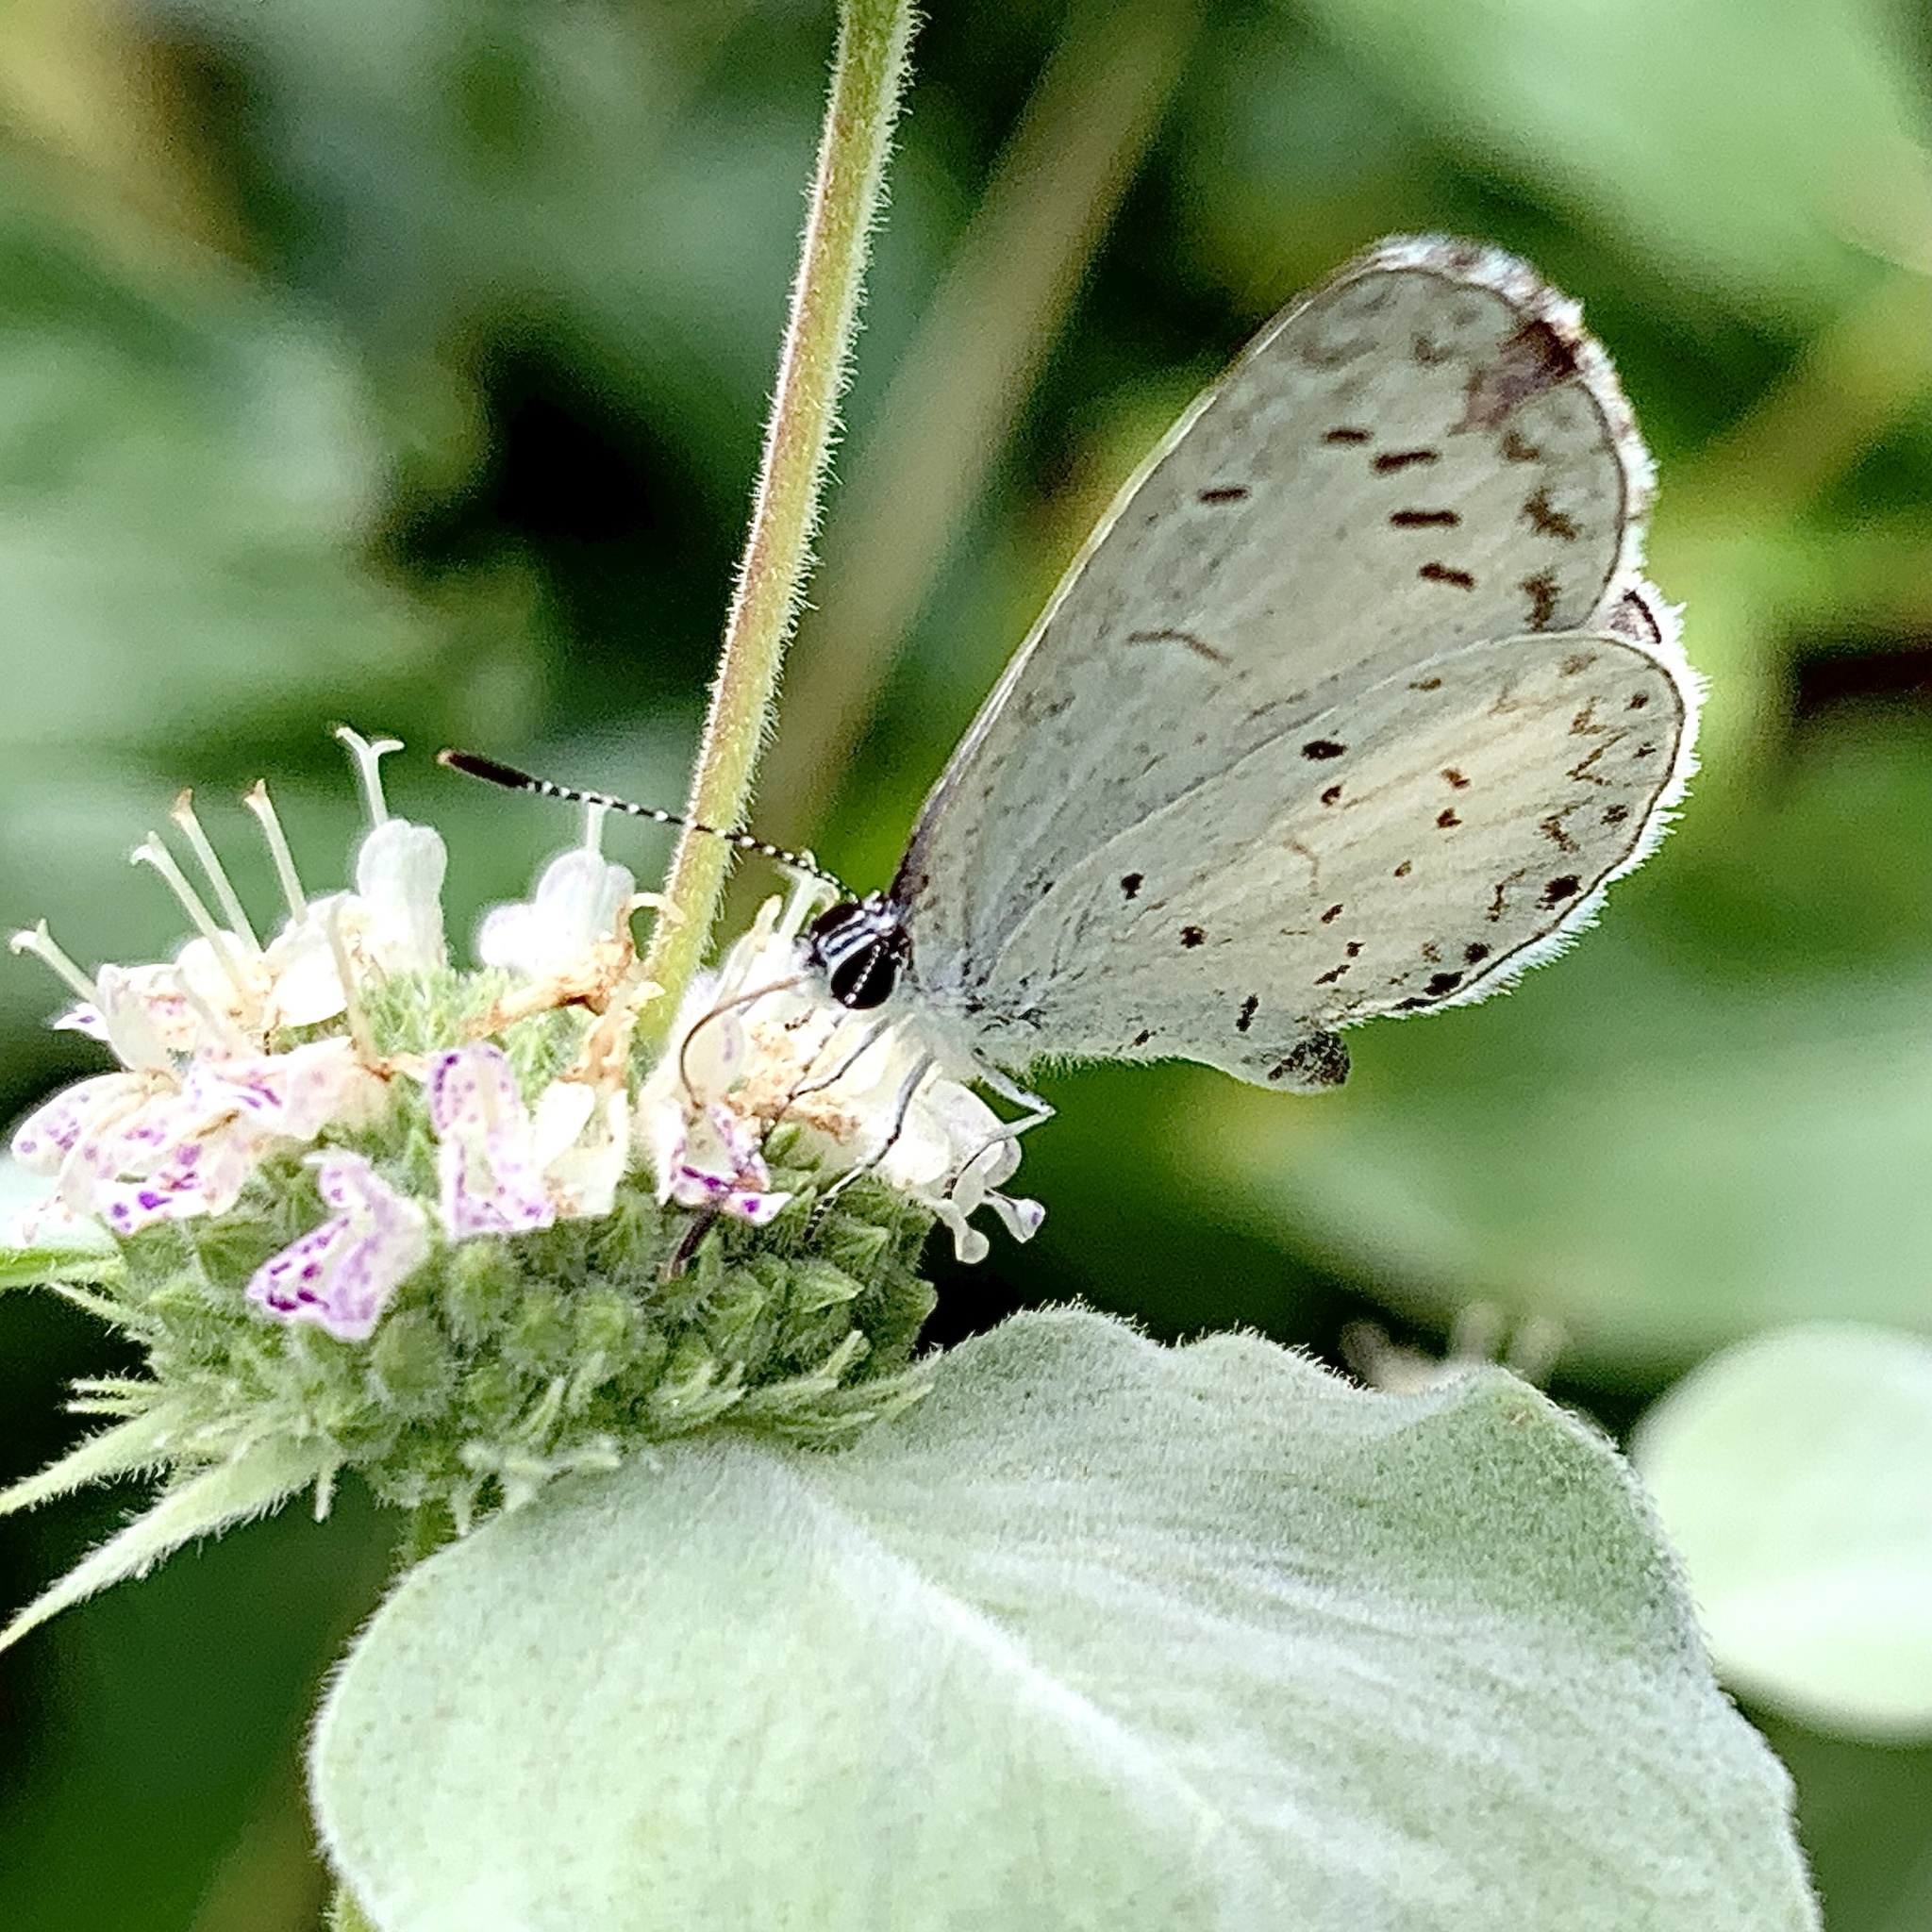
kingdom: Animalia
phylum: Arthropoda
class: Insecta
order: Lepidoptera
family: Lycaenidae
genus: Cyaniris
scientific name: Cyaniris neglecta
